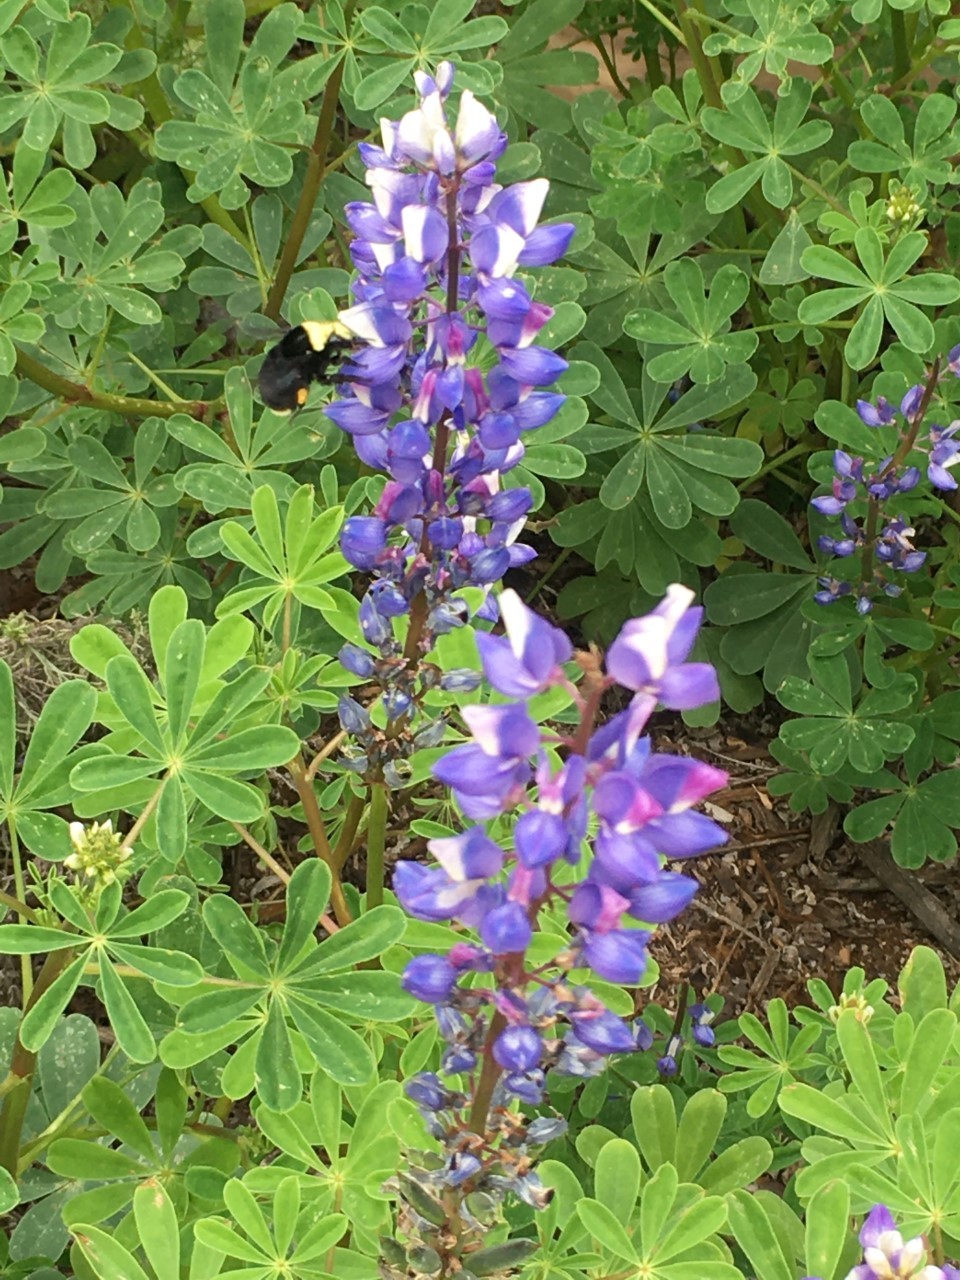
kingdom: Animalia
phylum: Arthropoda
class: Insecta
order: Hymenoptera
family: Apidae
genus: Bombus
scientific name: Bombus vosnesenskii
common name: Vosnesensky bumble bee
